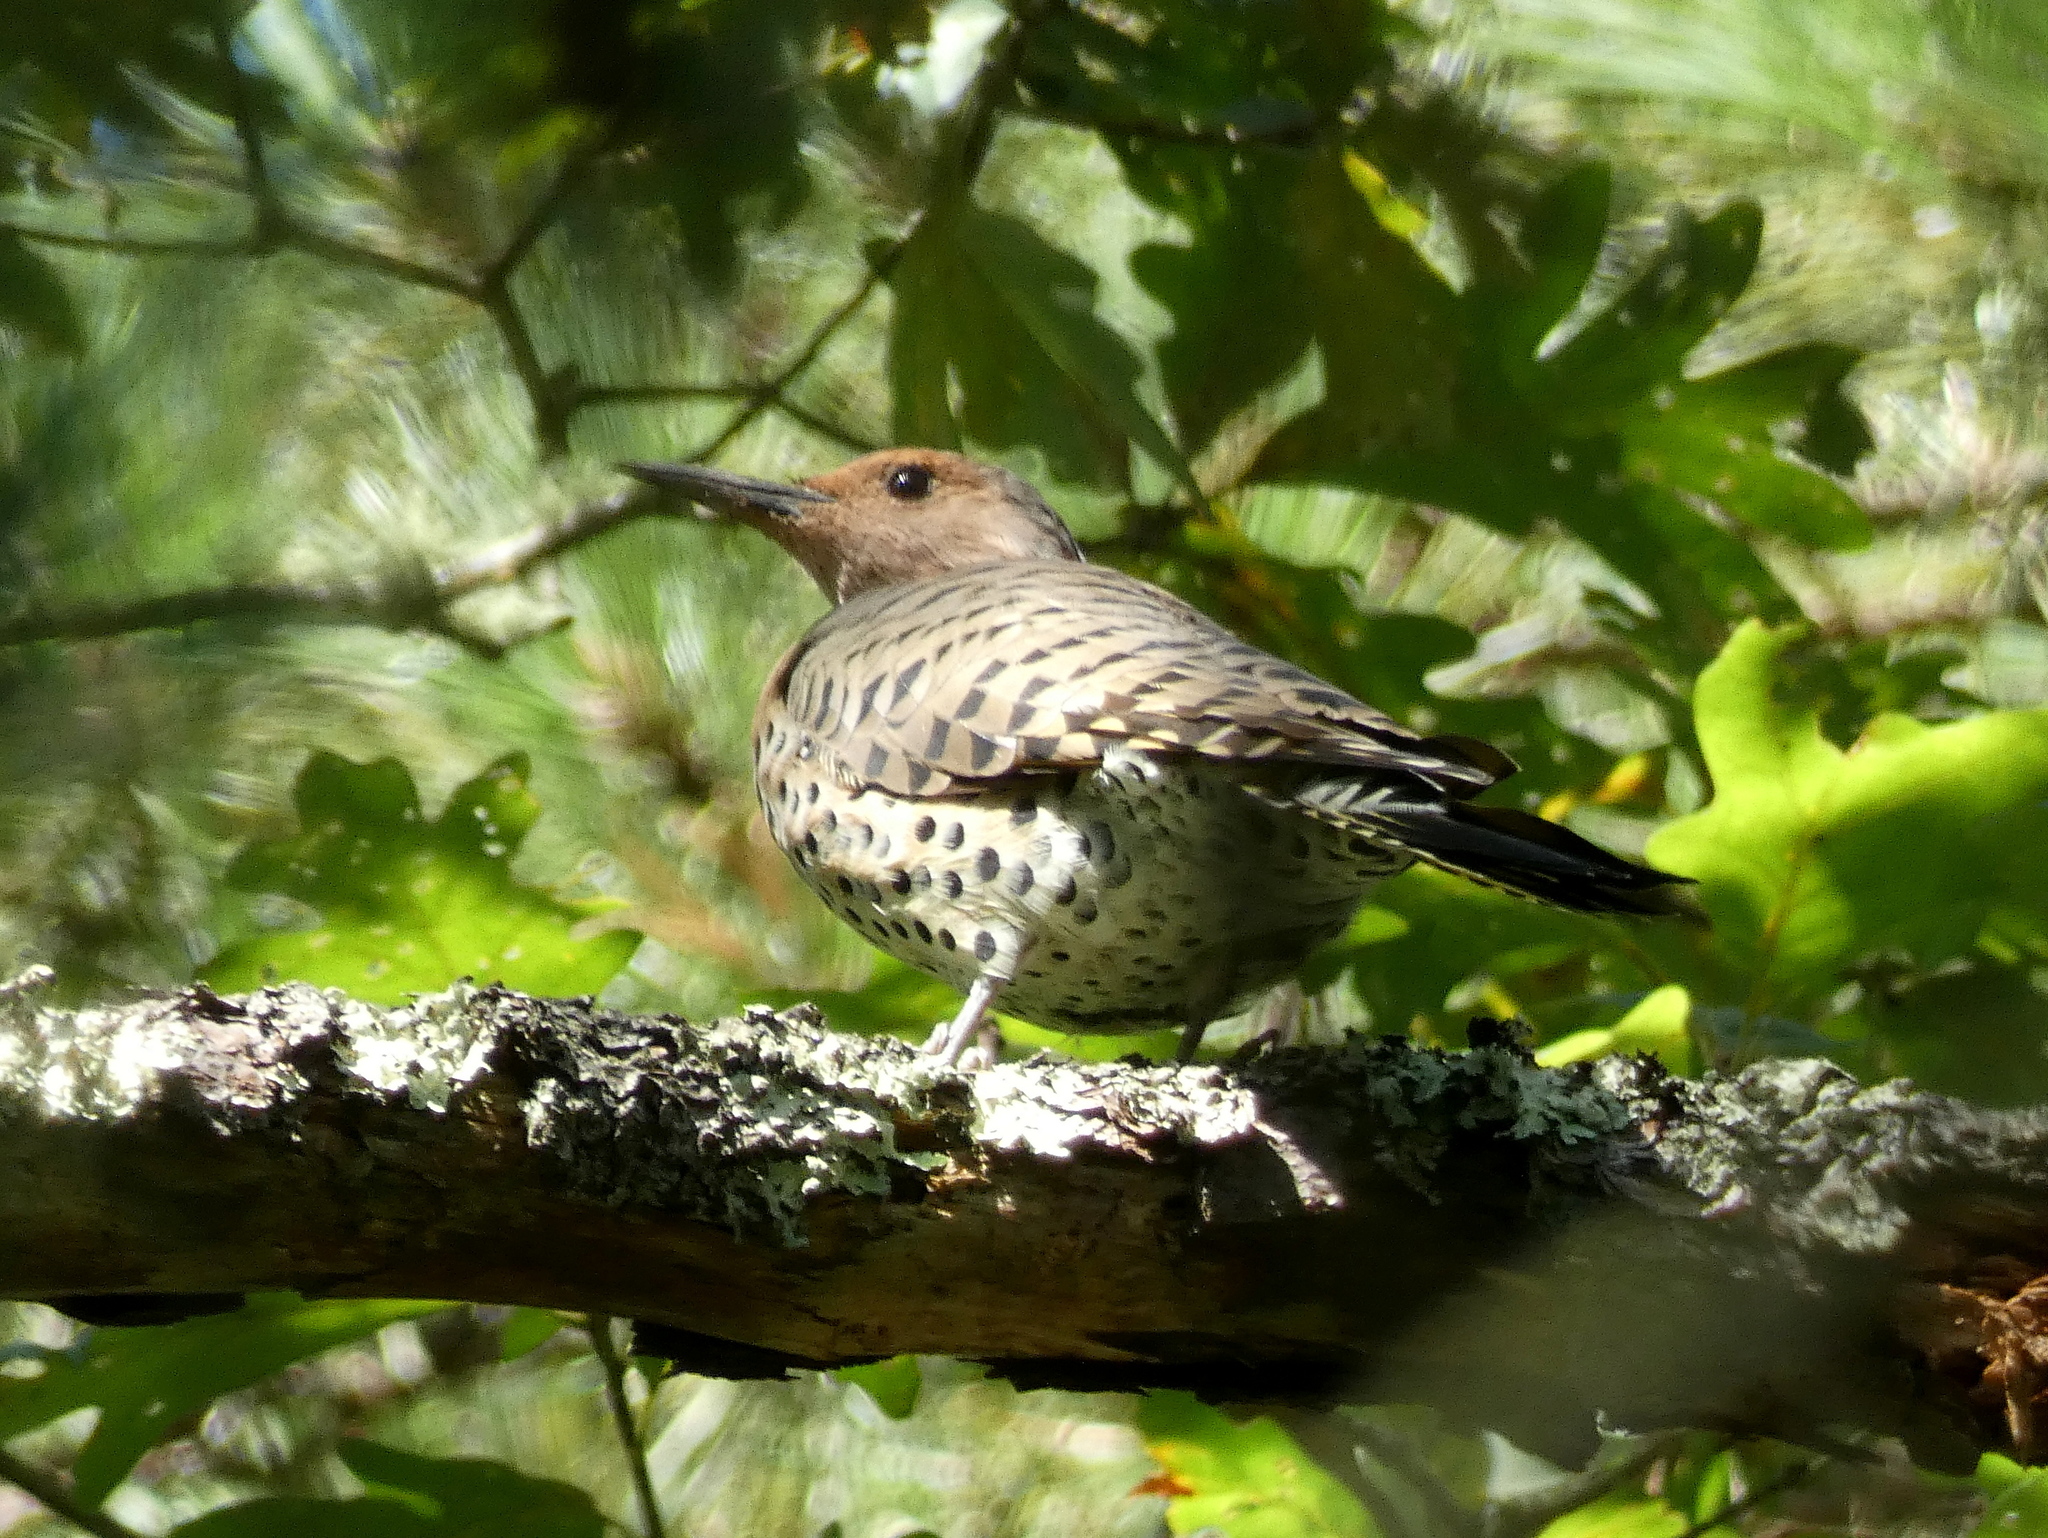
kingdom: Animalia
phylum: Chordata
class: Aves
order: Piciformes
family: Picidae
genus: Colaptes
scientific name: Colaptes auratus
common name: Northern flicker
